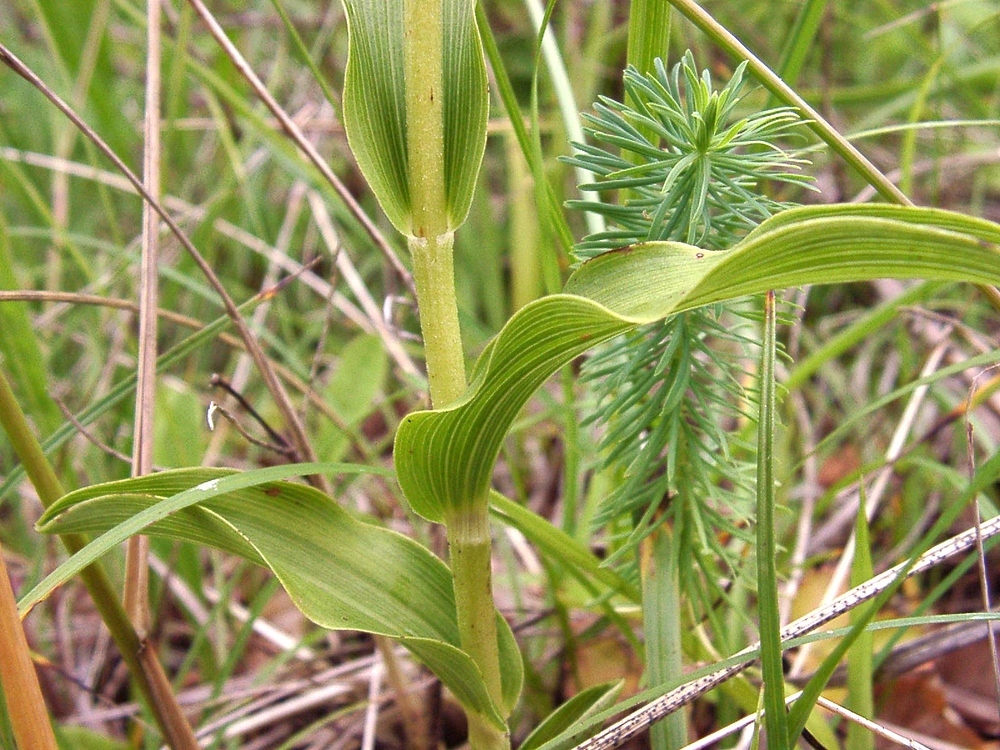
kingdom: Plantae
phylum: Tracheophyta
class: Liliopsida
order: Asparagales
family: Orchidaceae
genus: Epipactis
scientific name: Epipactis muelleri
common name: Mueller's epipactis
